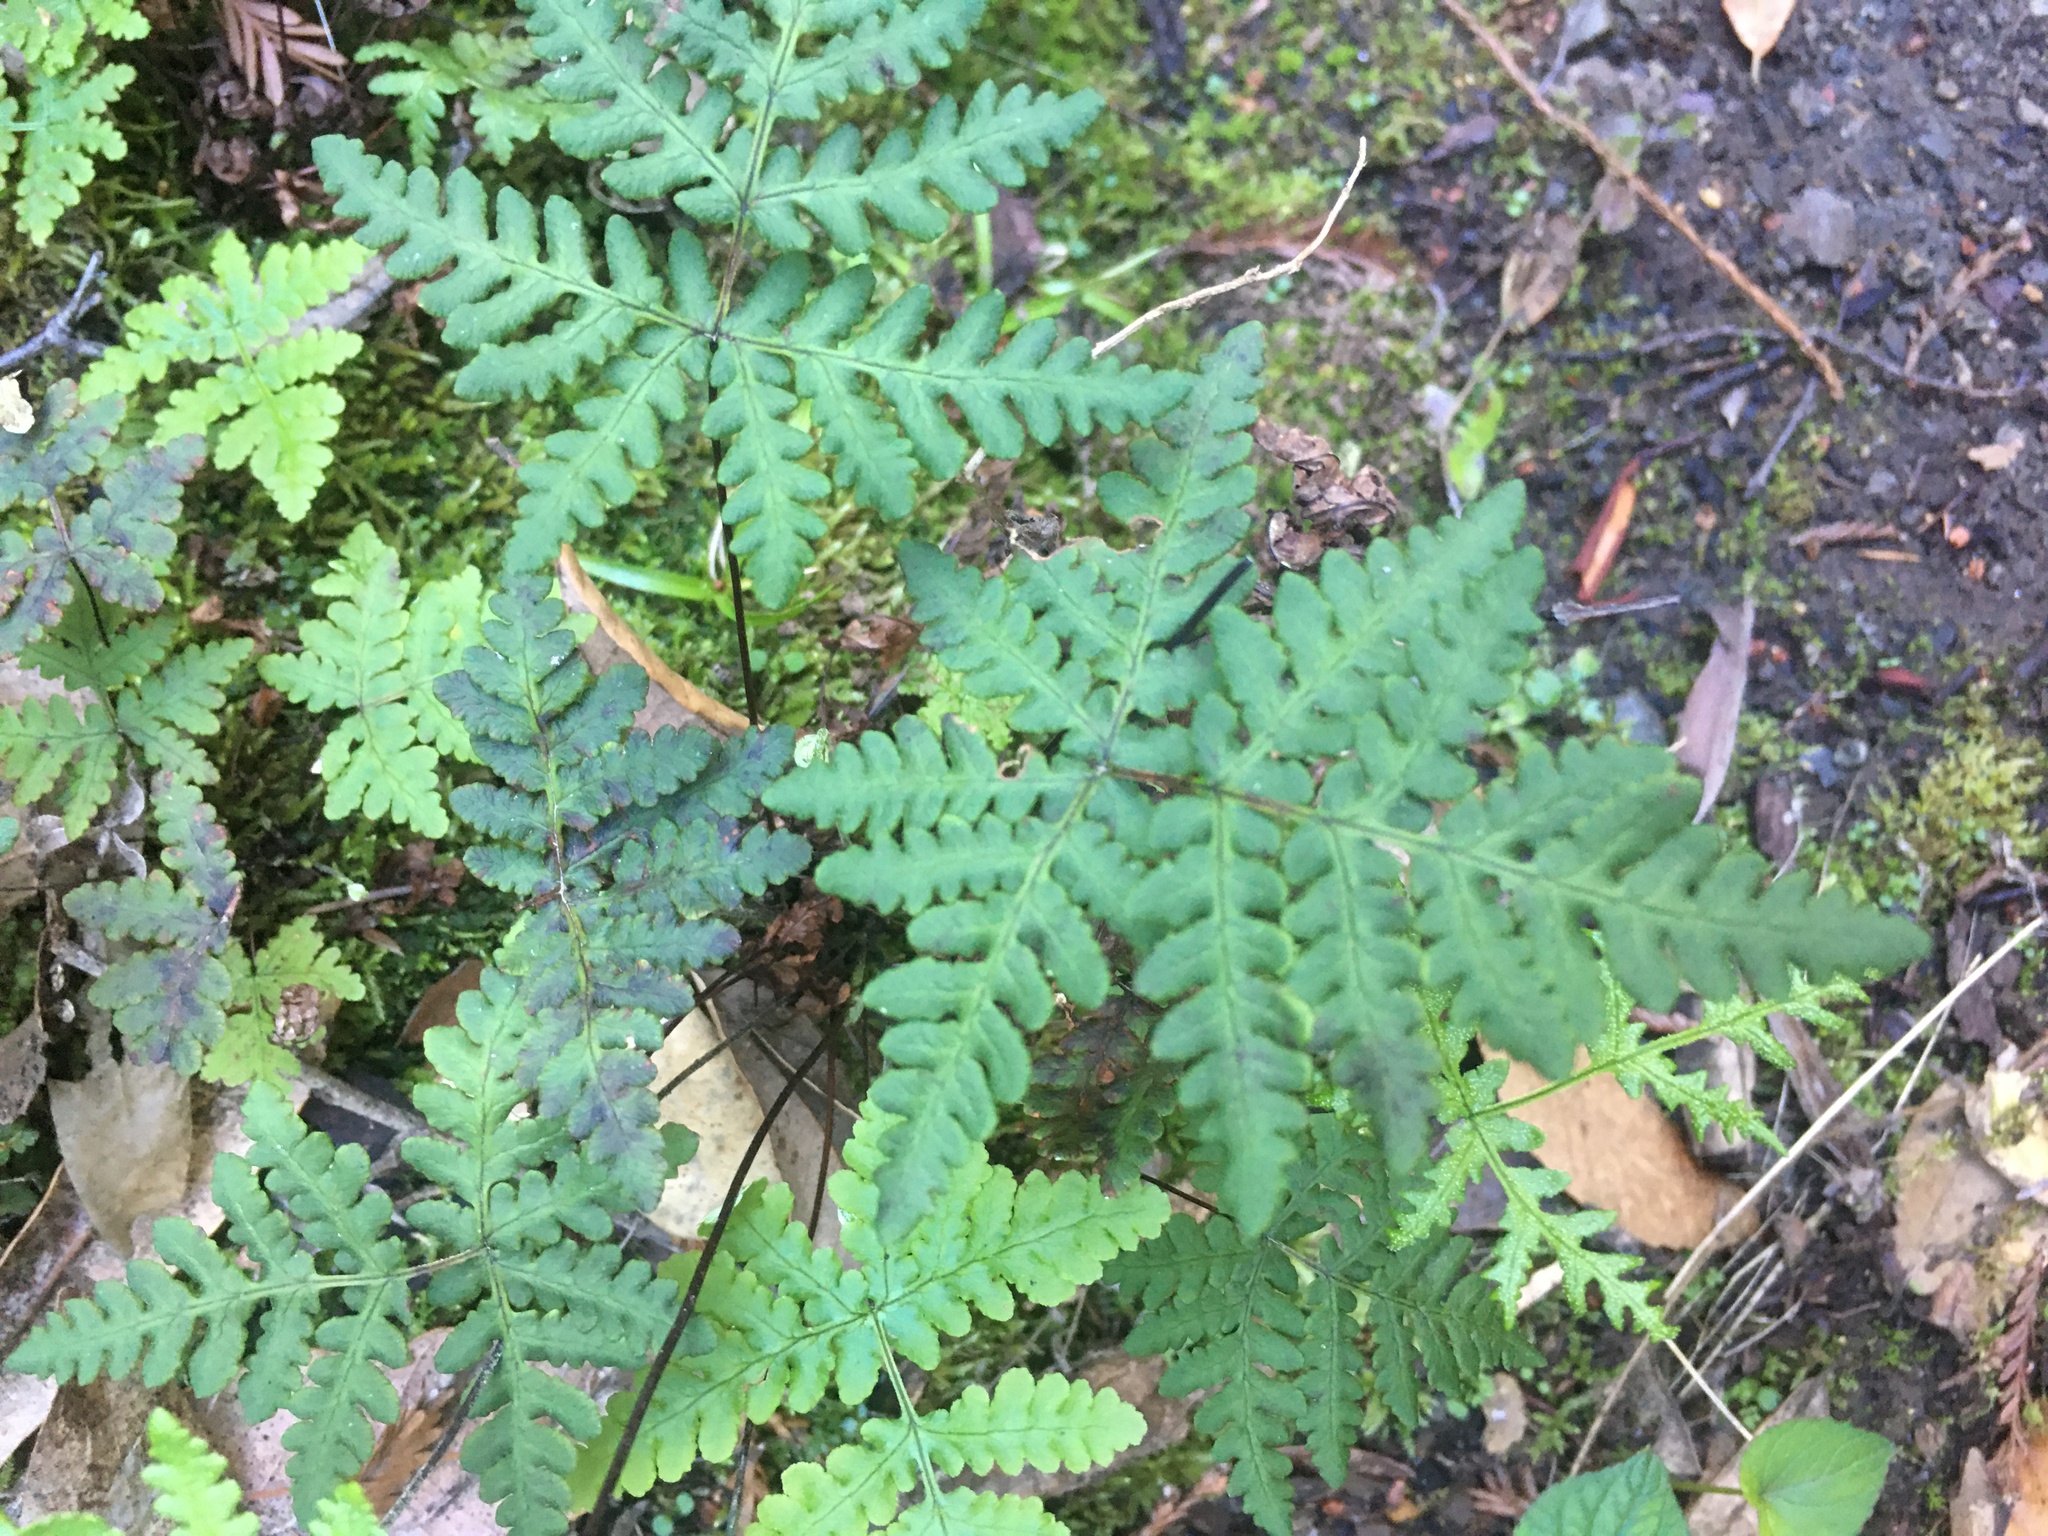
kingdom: Plantae
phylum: Tracheophyta
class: Polypodiopsida
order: Polypodiales
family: Pteridaceae
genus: Pentagramma
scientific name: Pentagramma triangularis
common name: Gold fern
